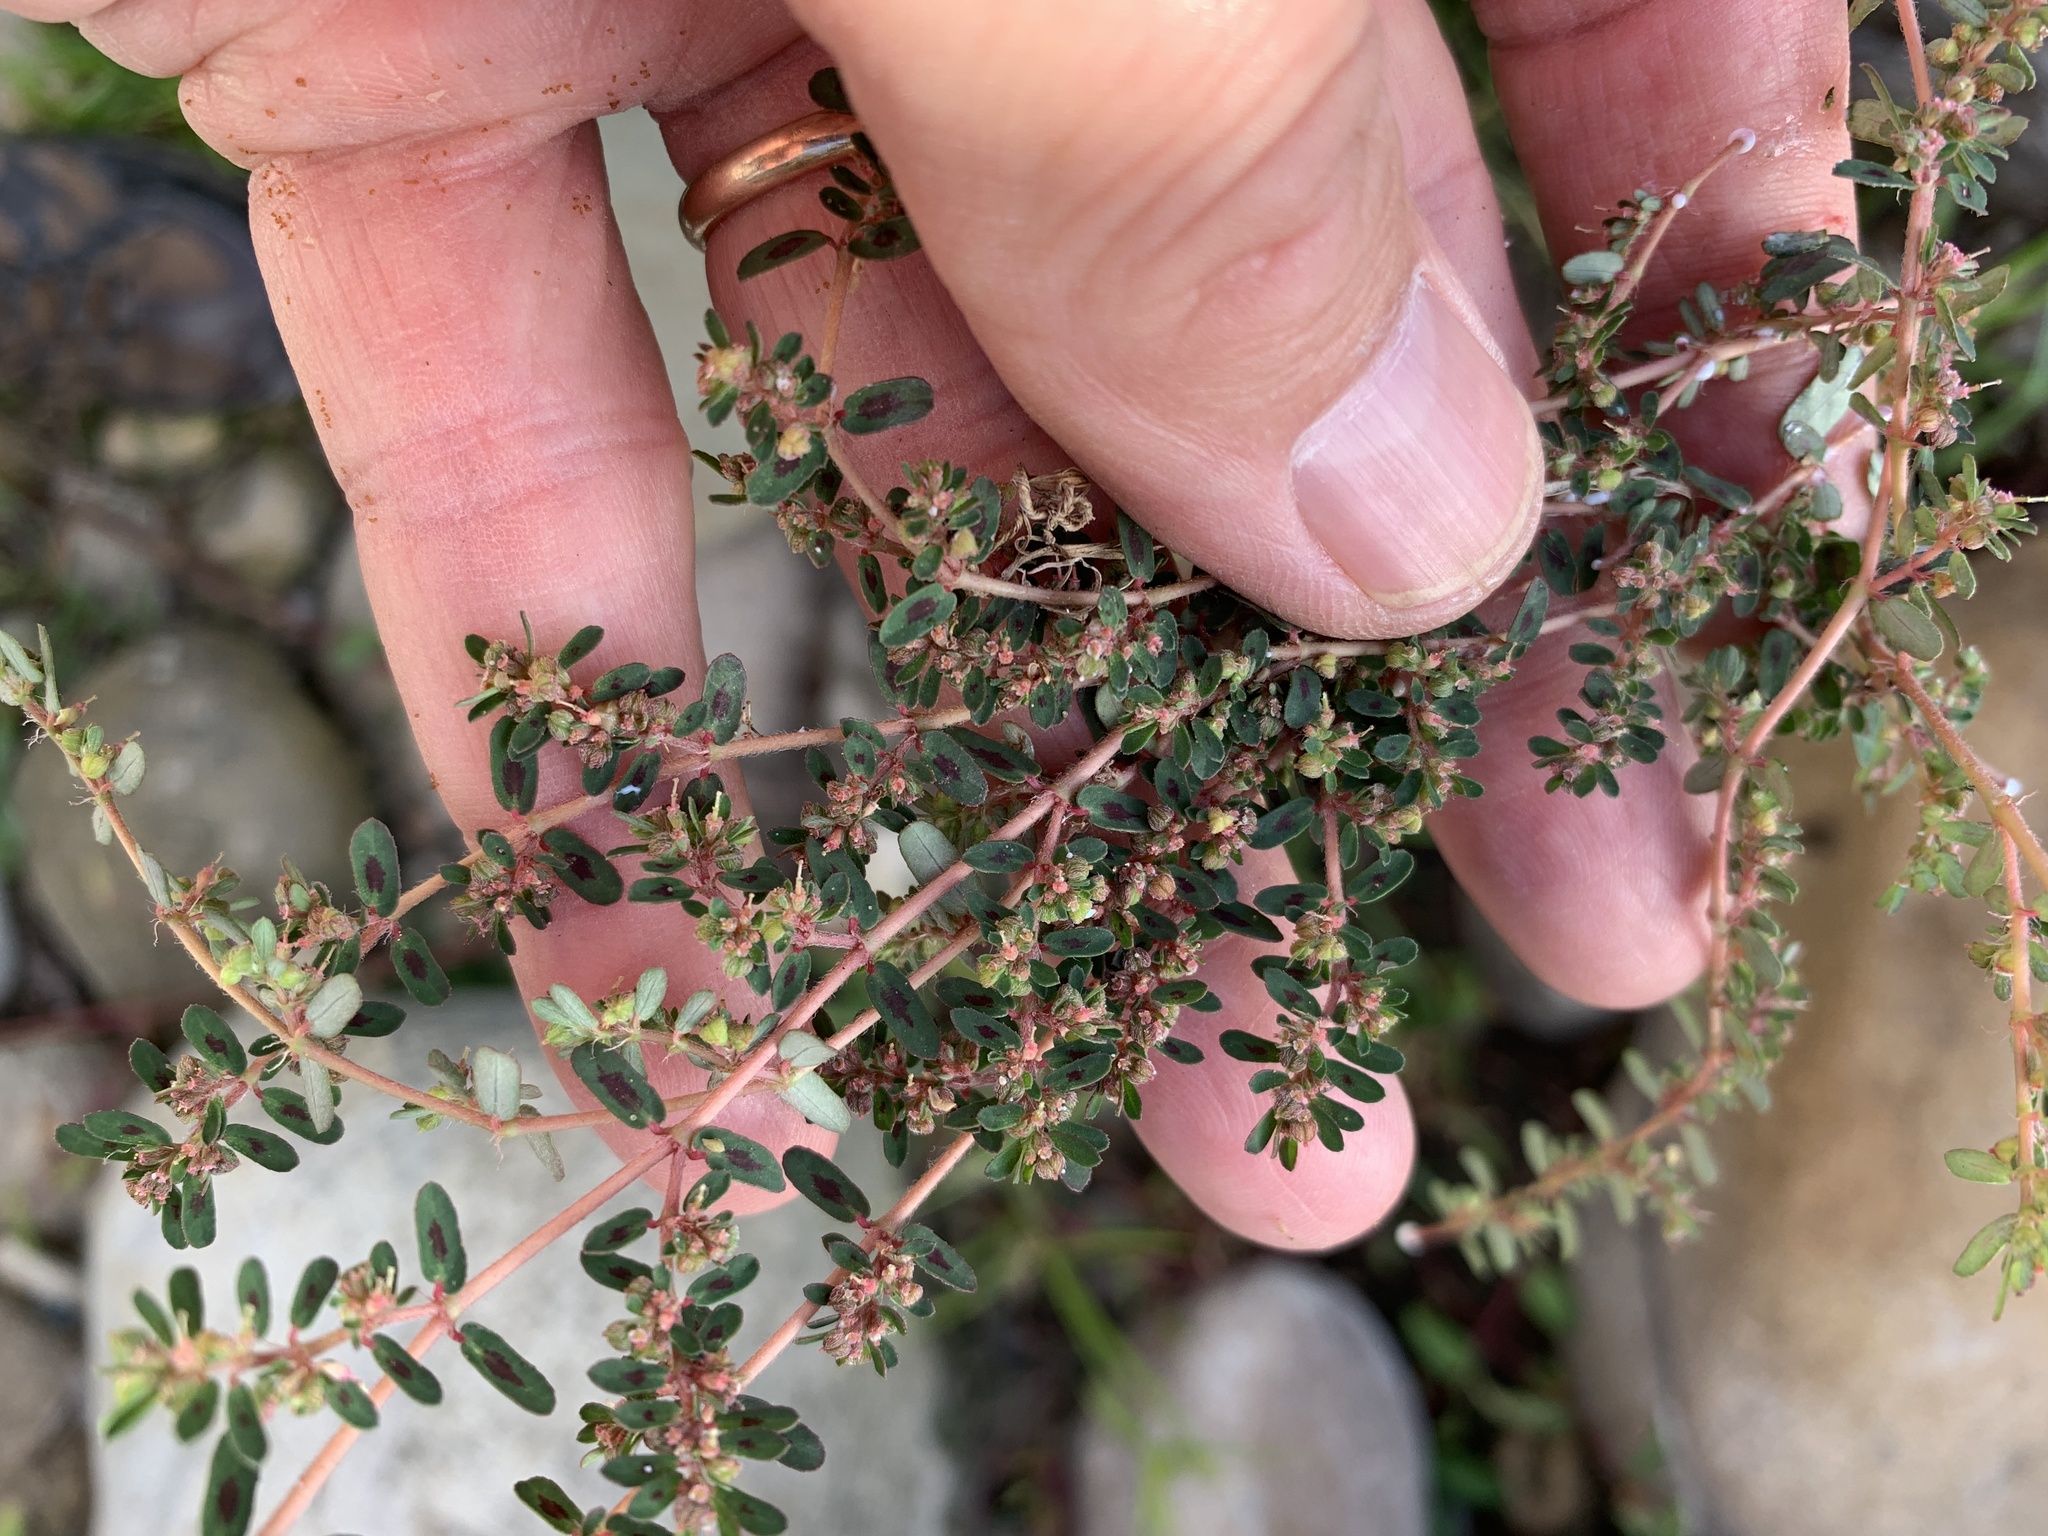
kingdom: Plantae
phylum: Tracheophyta
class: Magnoliopsida
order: Malpighiales
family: Euphorbiaceae
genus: Euphorbia
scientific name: Euphorbia maculata
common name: Spotted spurge
